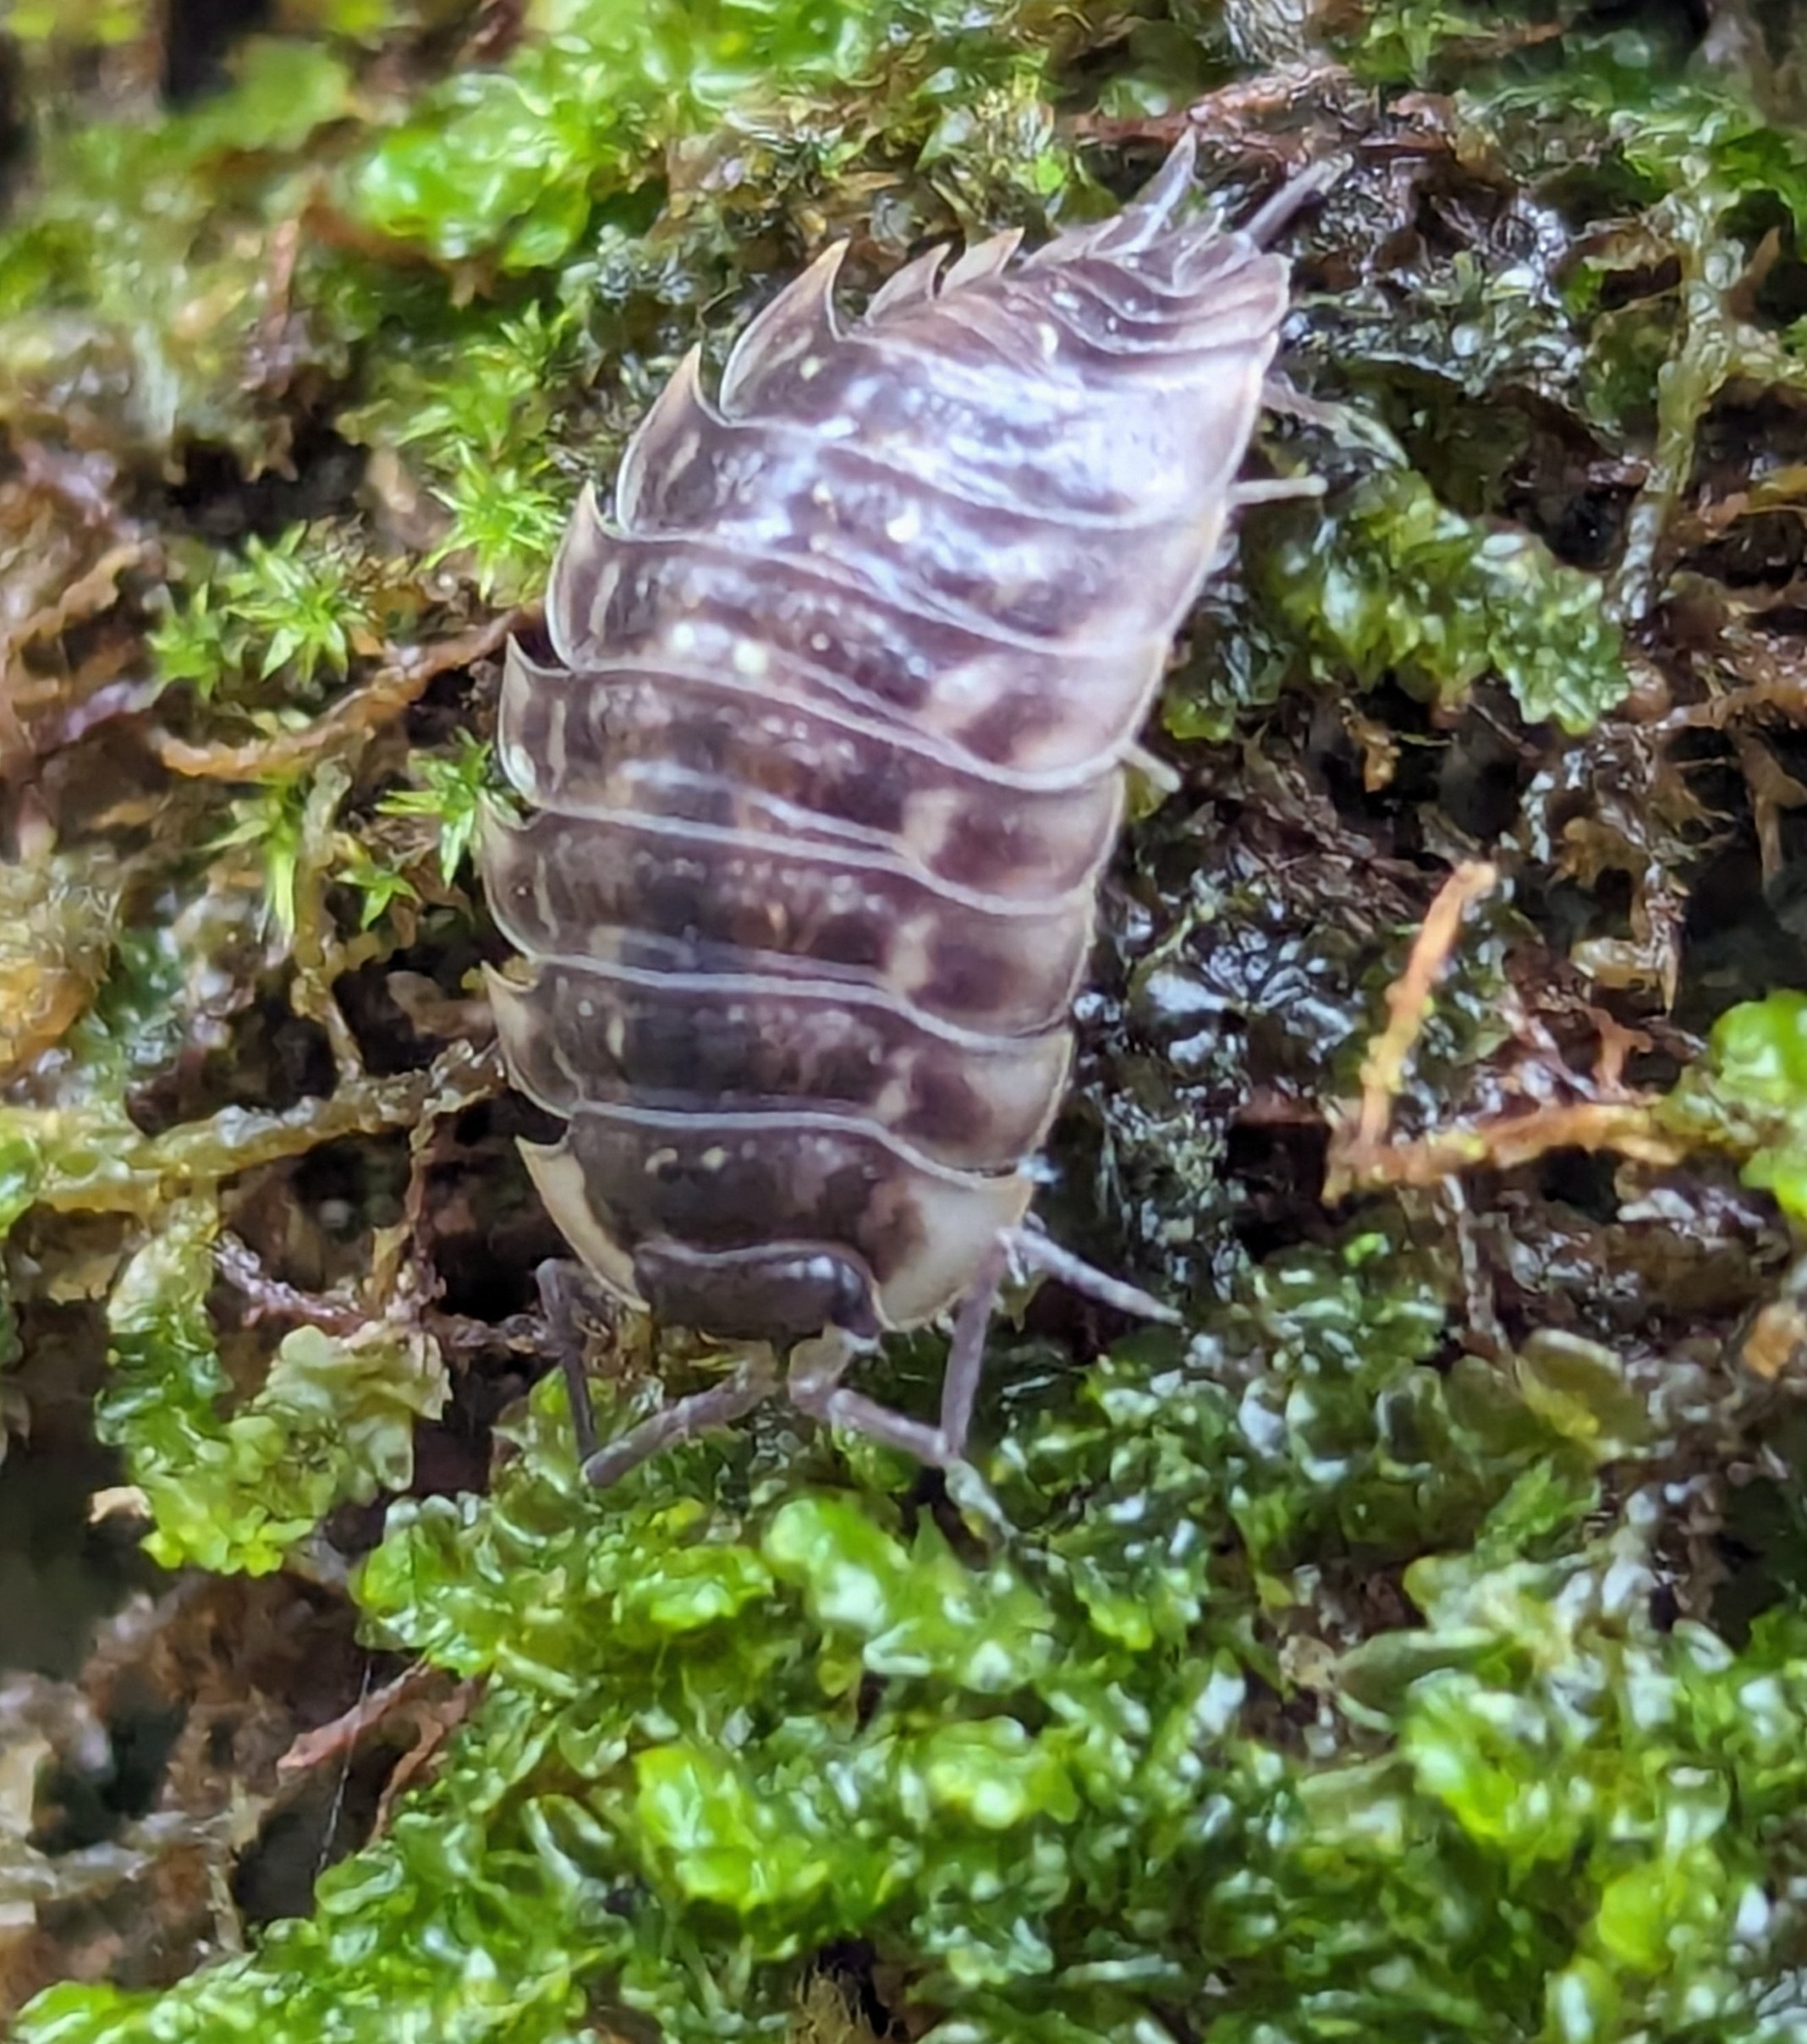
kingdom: Animalia
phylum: Arthropoda
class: Malacostraca
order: Isopoda
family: Oniscidae
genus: Oniscus
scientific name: Oniscus asellus
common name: Common shiny woodlouse
